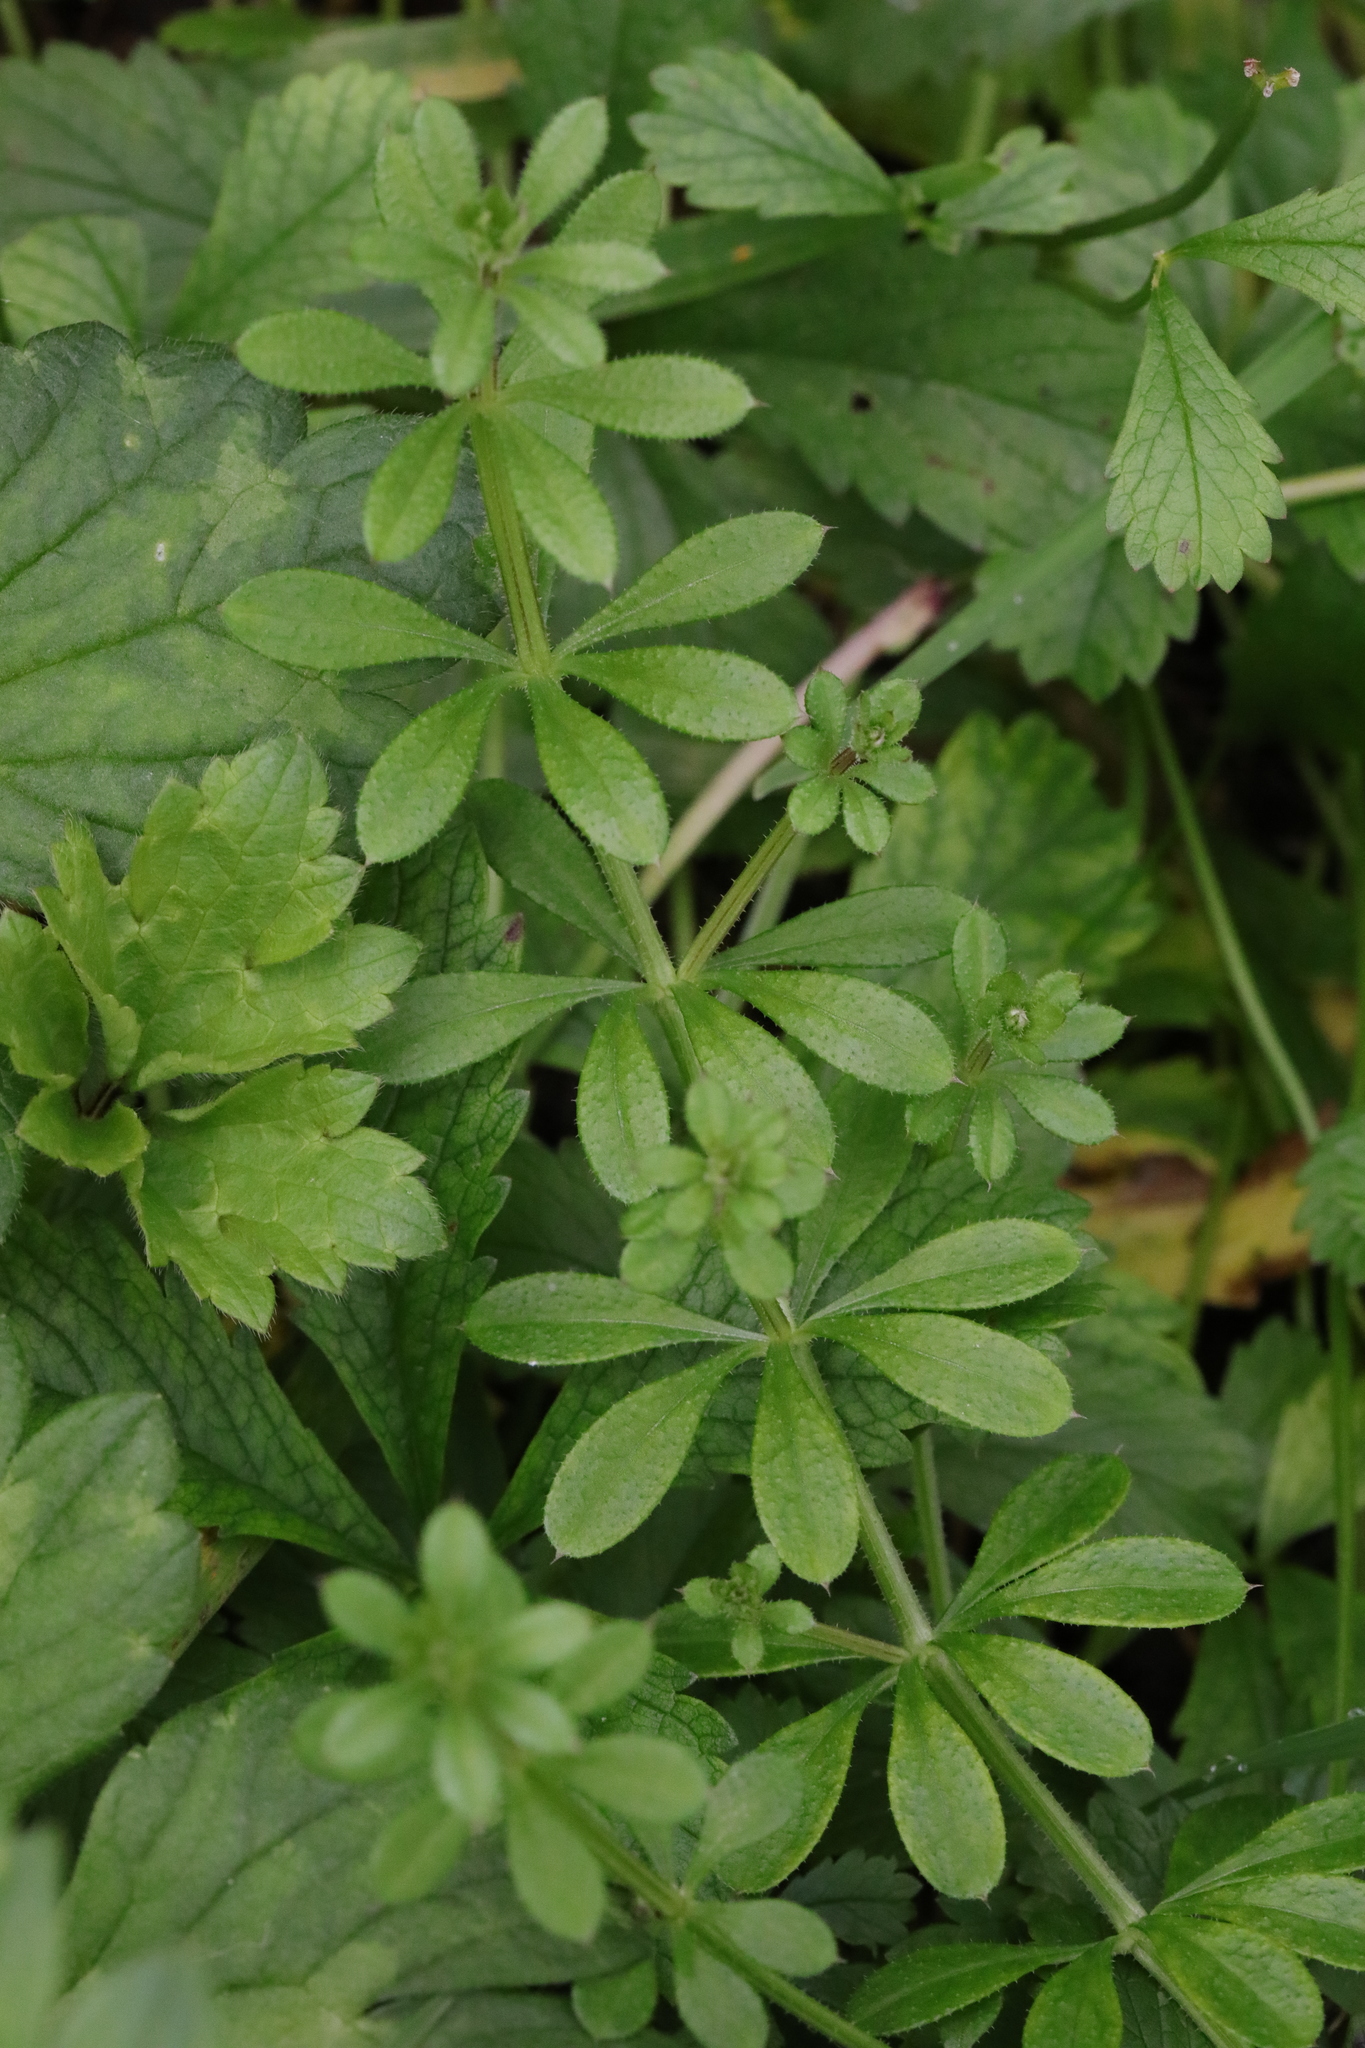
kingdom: Plantae
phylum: Tracheophyta
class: Magnoliopsida
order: Gentianales
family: Rubiaceae
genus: Galium
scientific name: Galium aparine
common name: Cleavers
